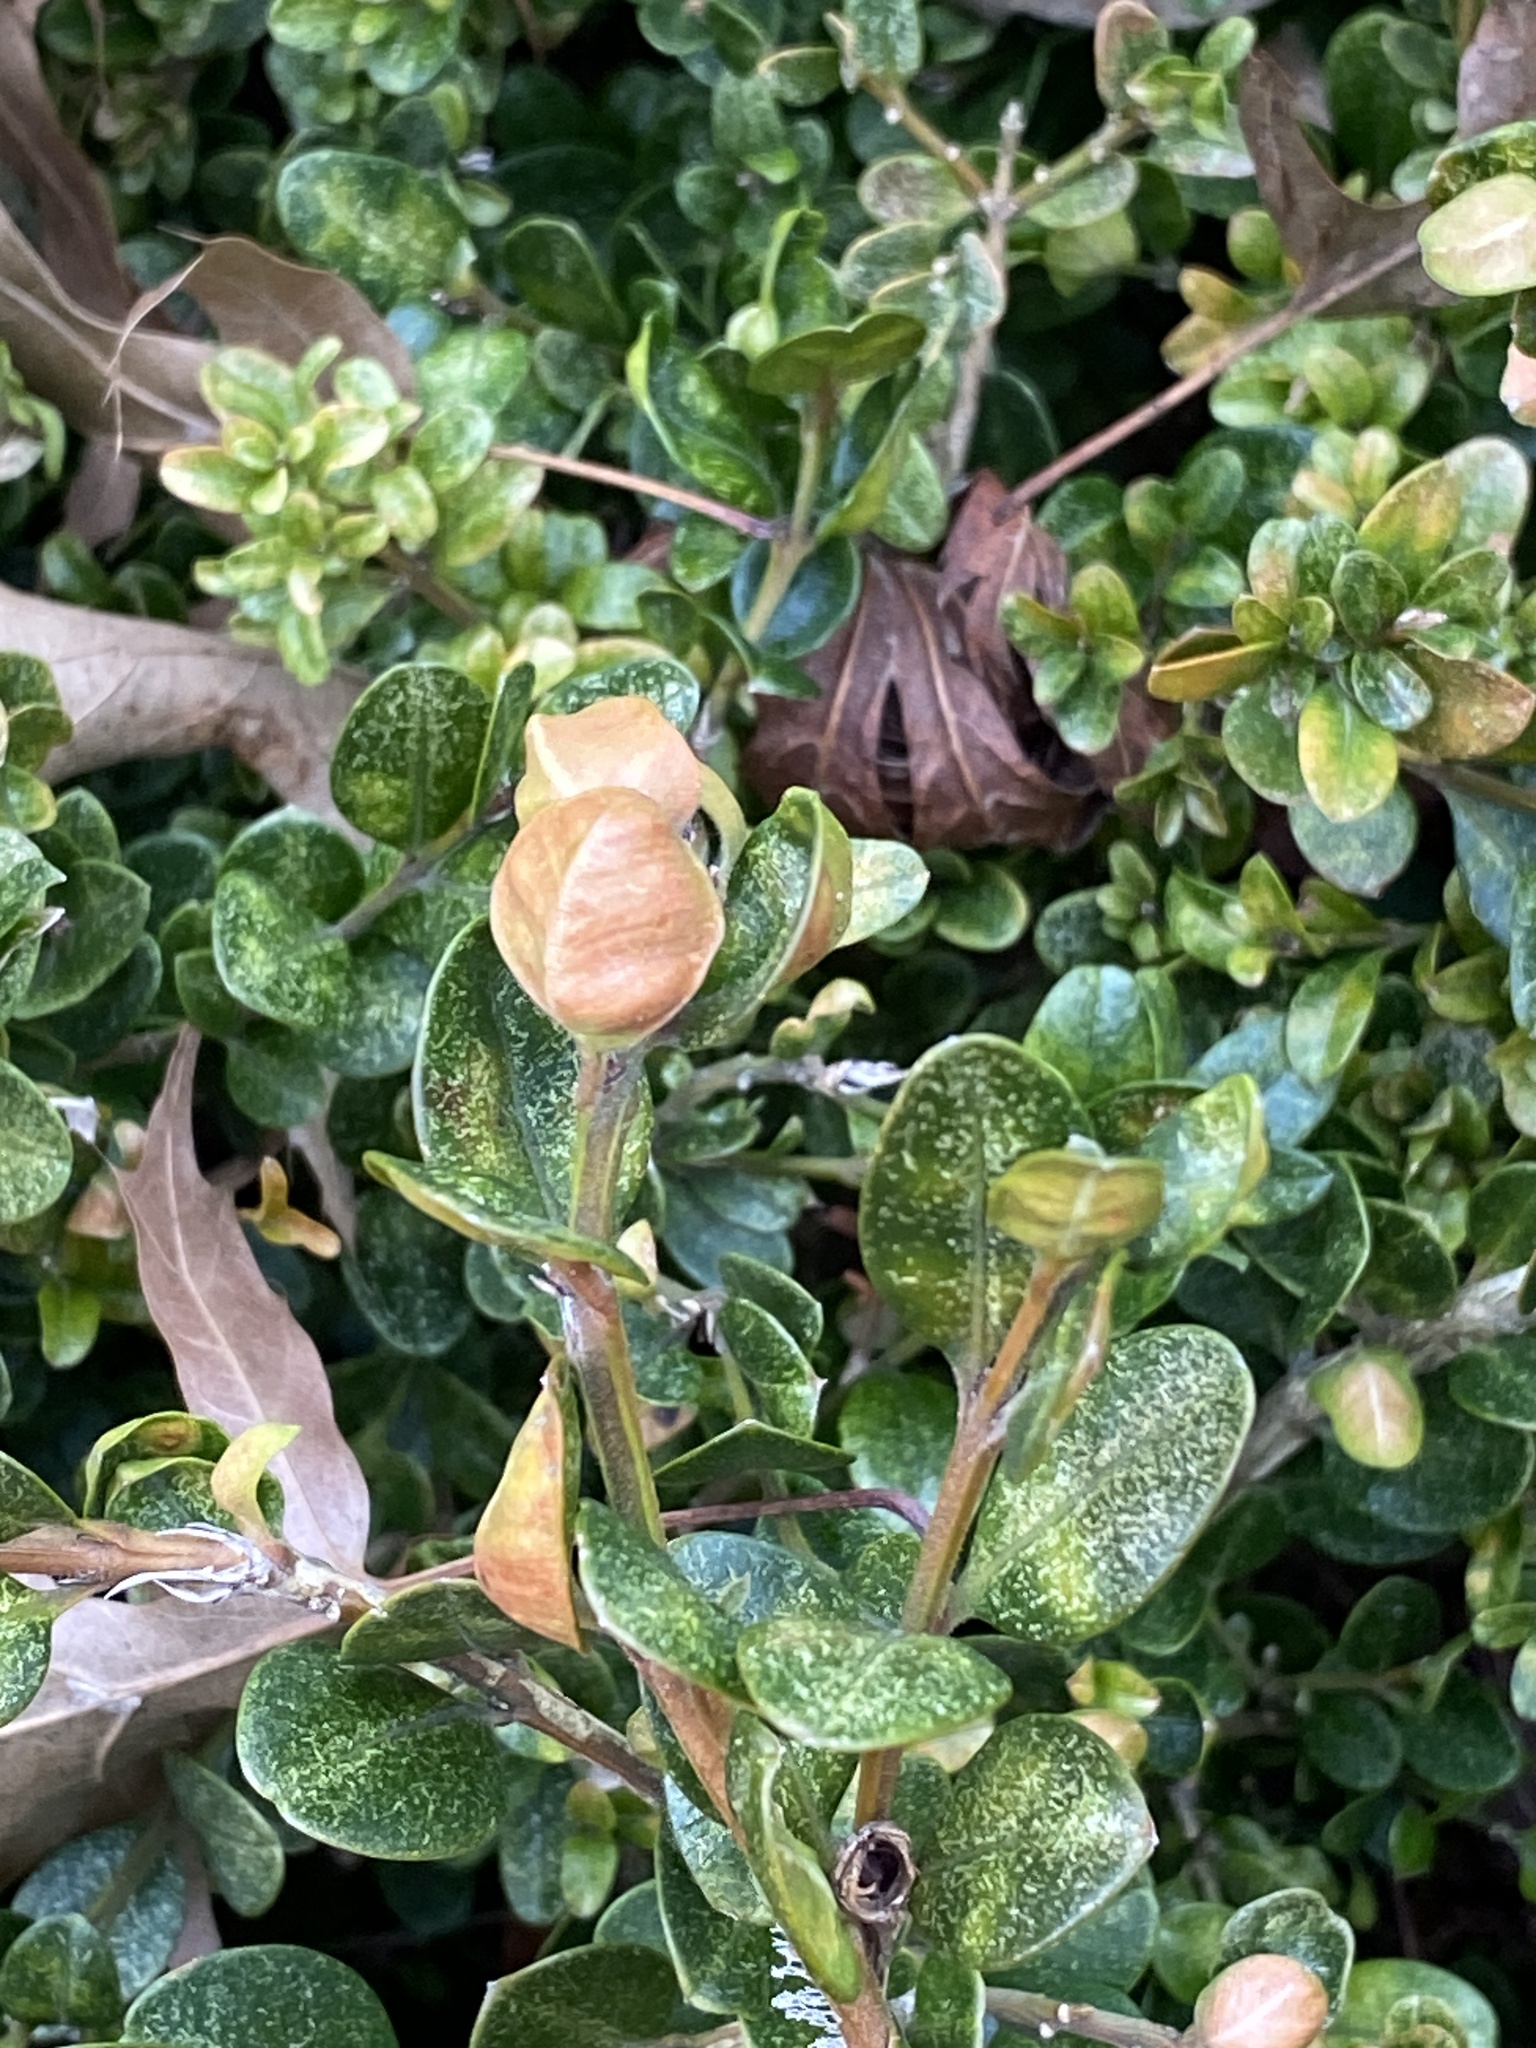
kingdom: Animalia
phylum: Arthropoda
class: Insecta
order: Hemiptera
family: Psyllidae
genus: Psylla
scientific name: Psylla buxi
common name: Boxwood psyllid
